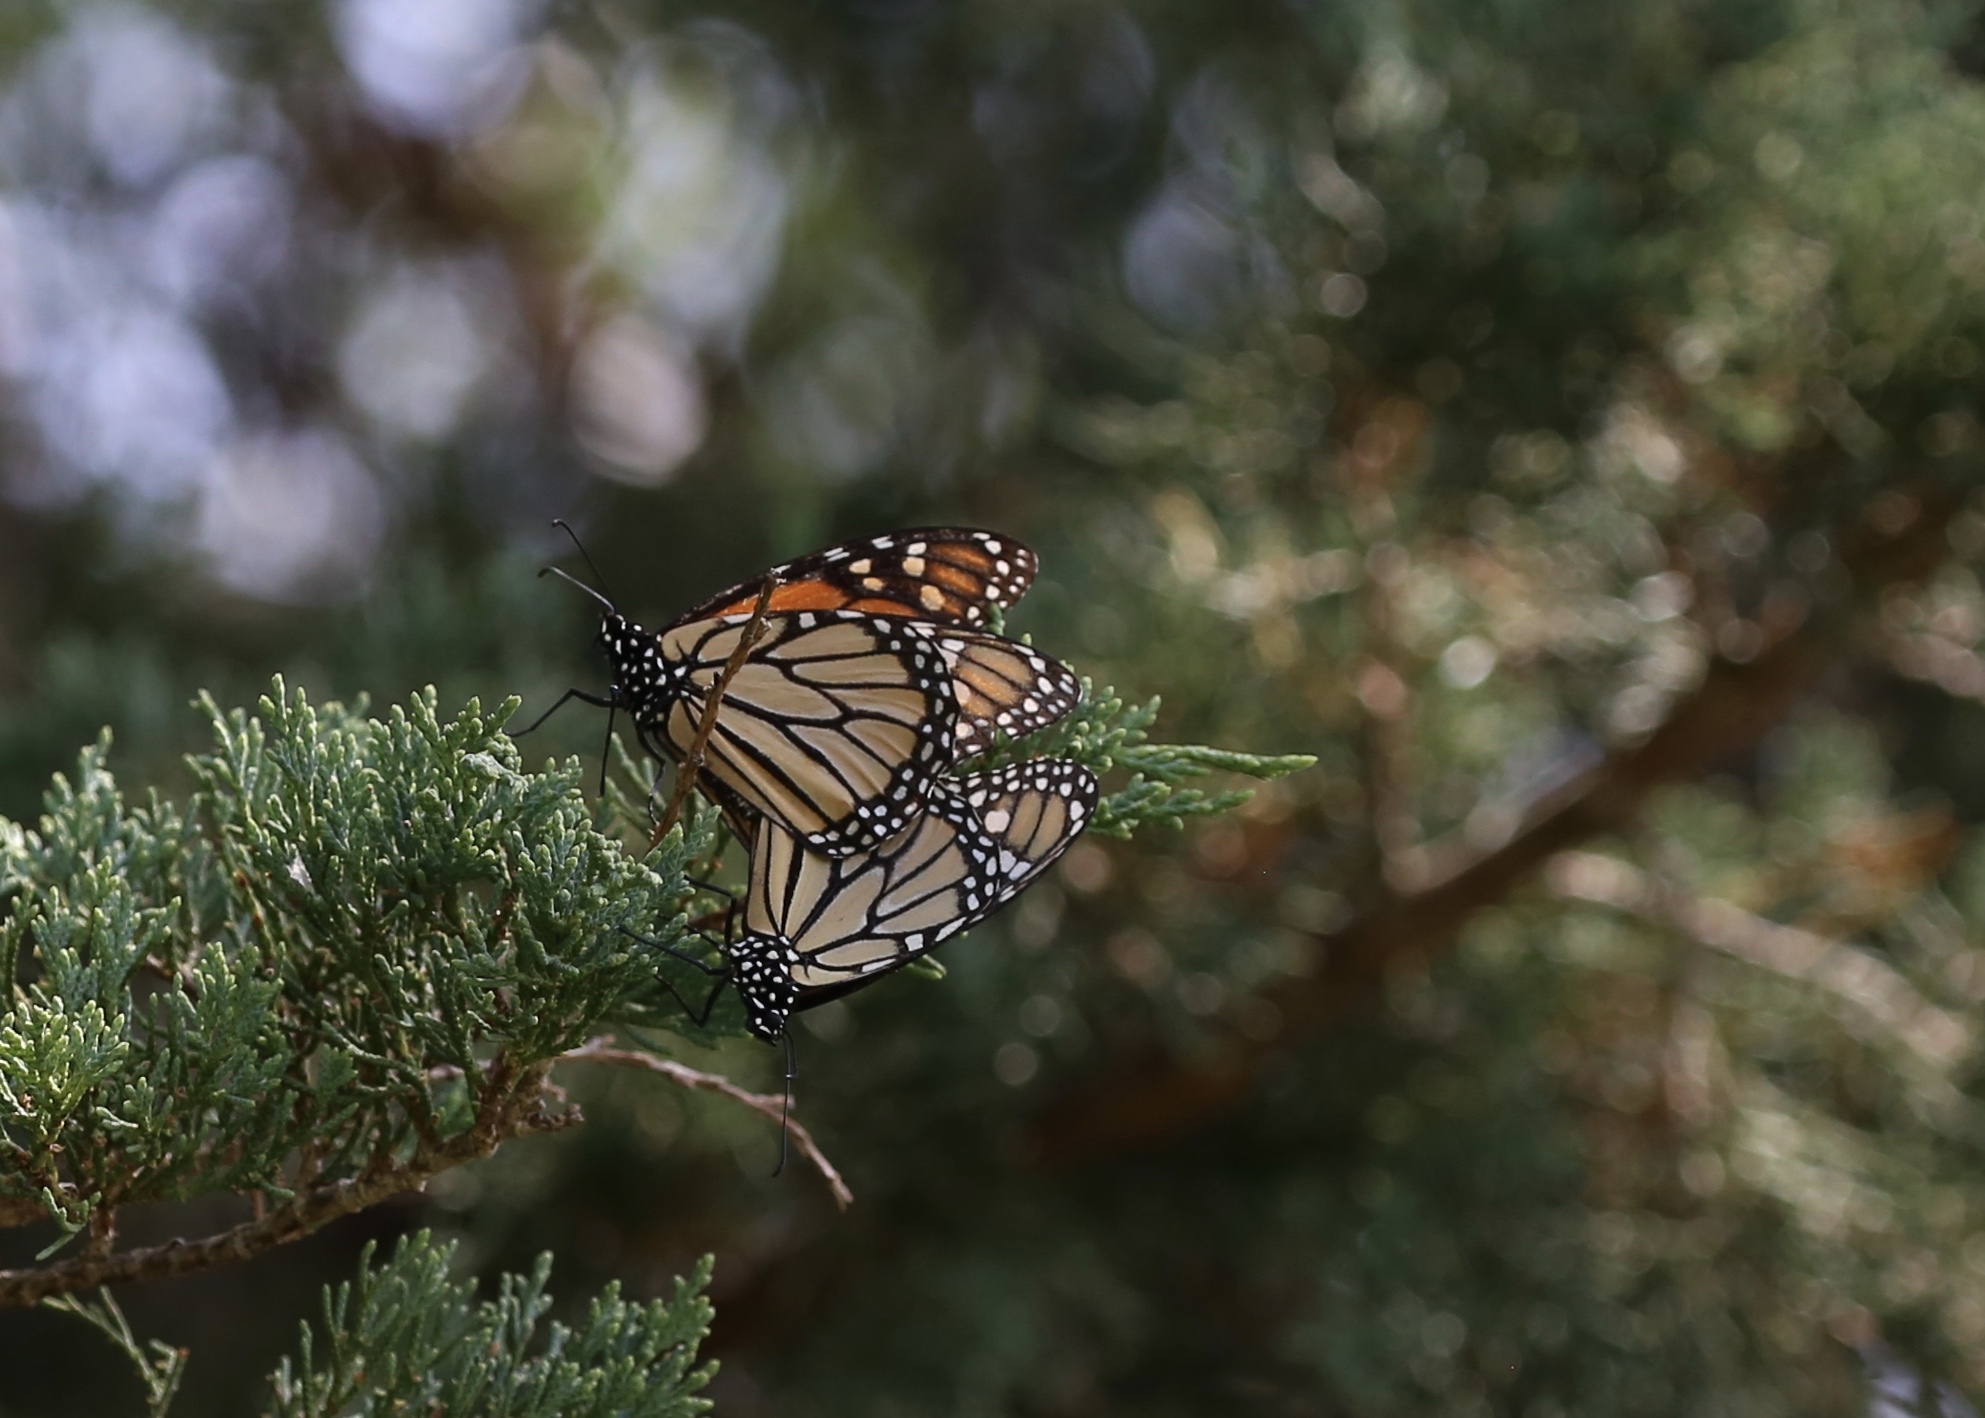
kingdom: Animalia
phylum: Arthropoda
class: Insecta
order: Lepidoptera
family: Nymphalidae
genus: Danaus
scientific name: Danaus plexippus
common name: Monarch
